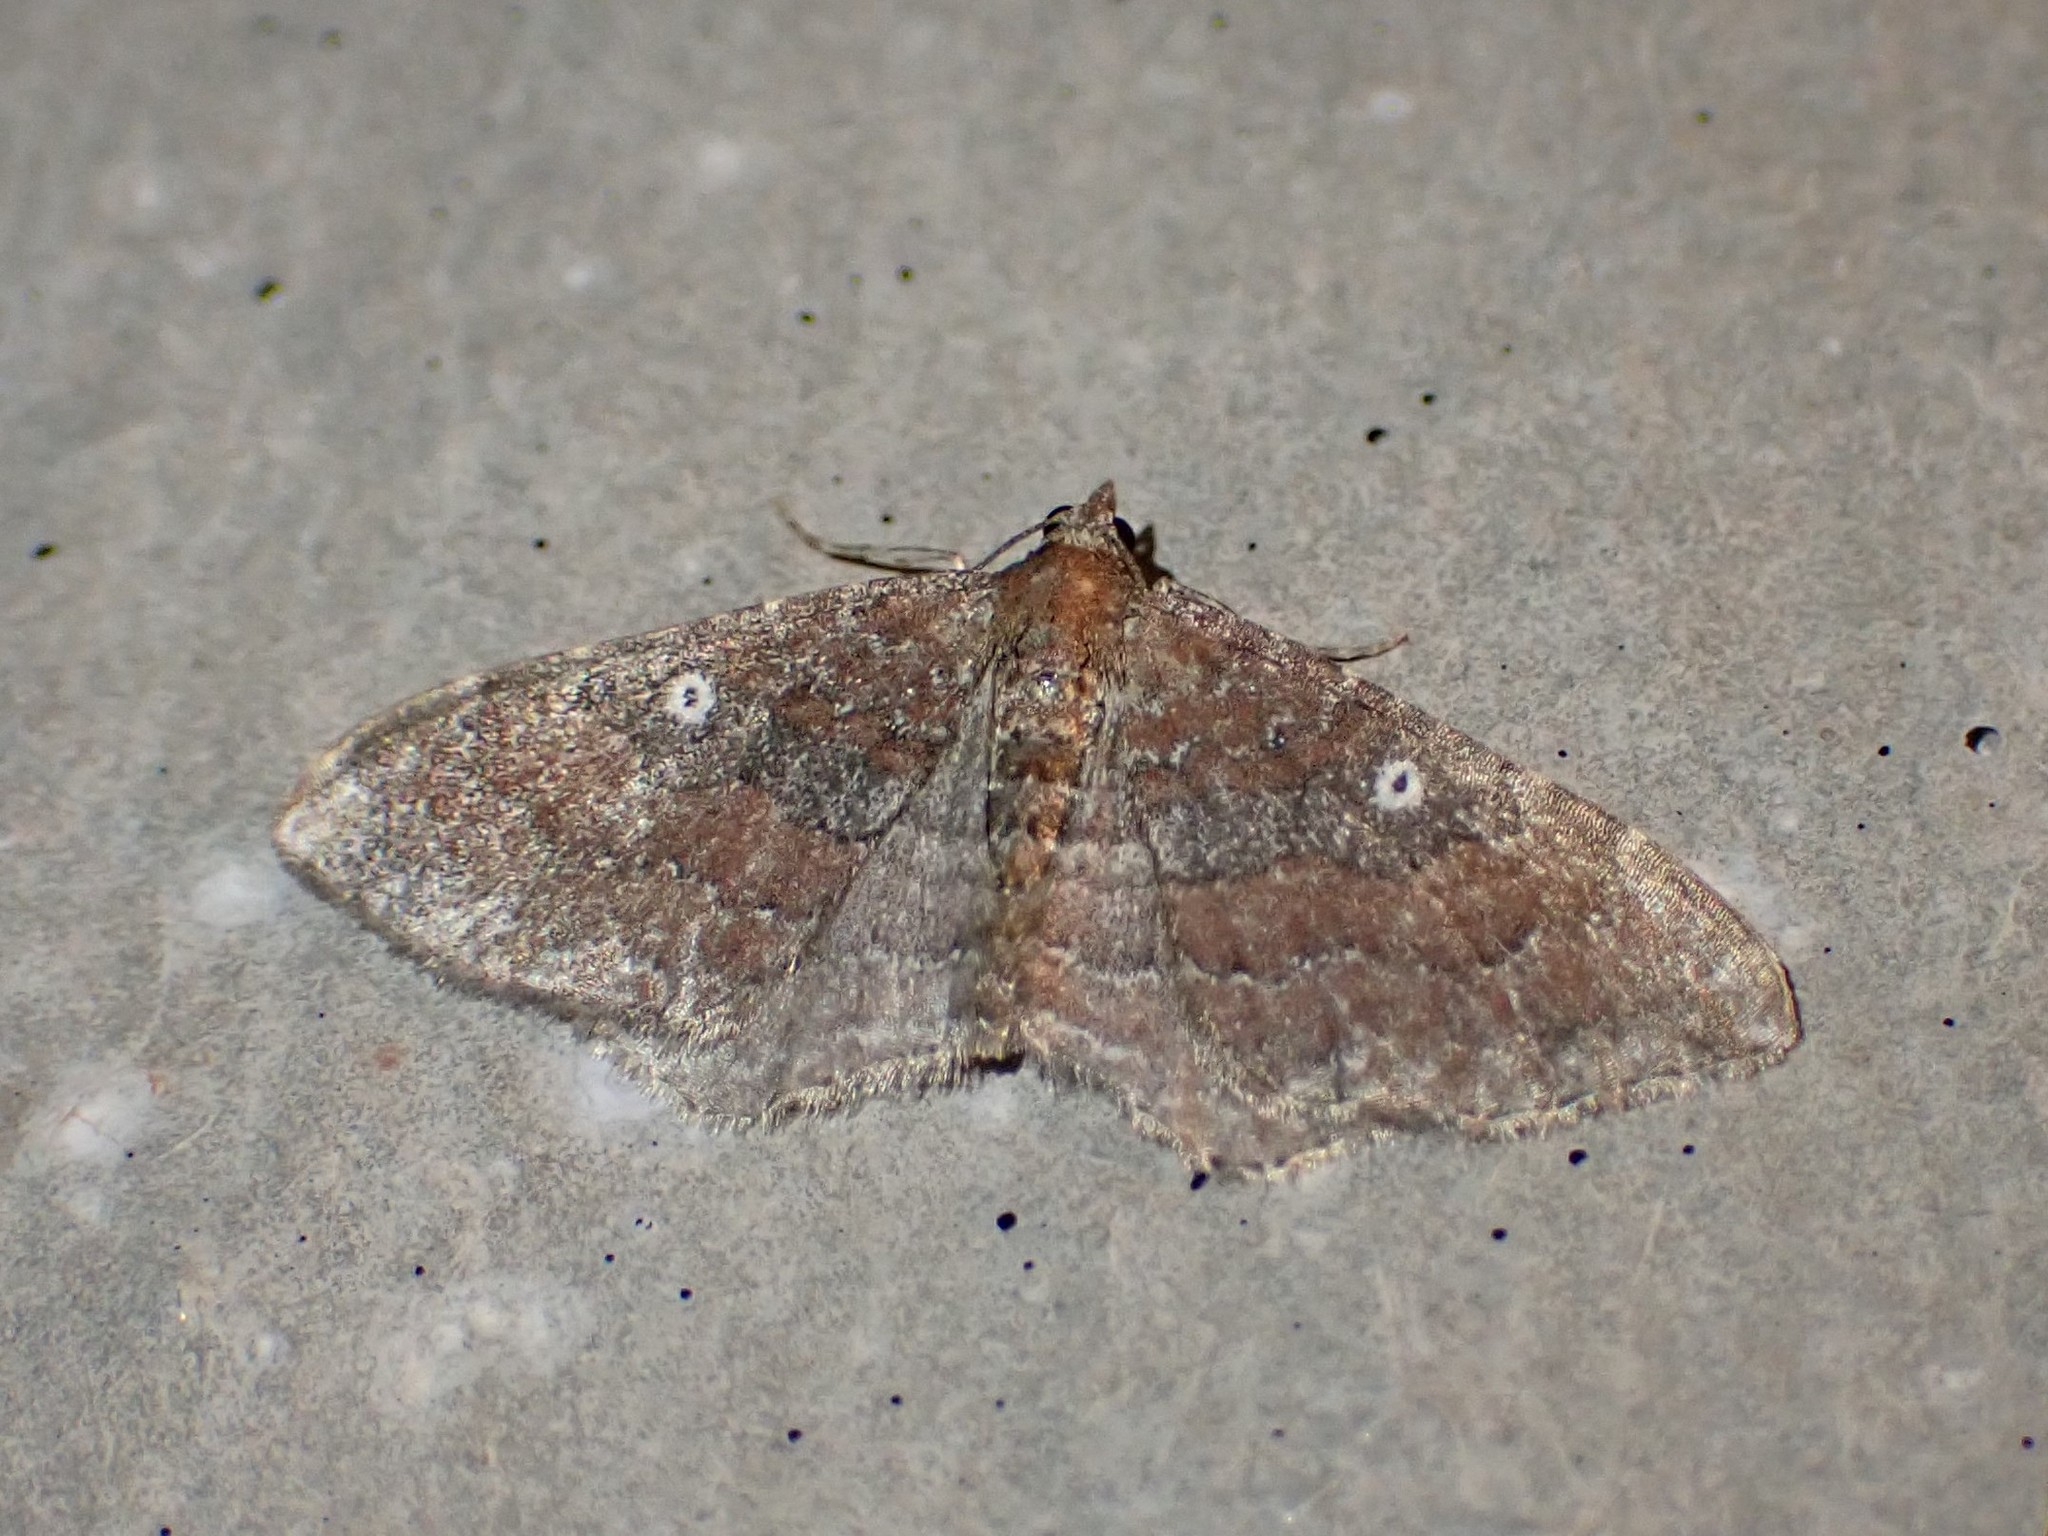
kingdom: Animalia
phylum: Arthropoda
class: Insecta
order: Lepidoptera
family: Geometridae
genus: Orthonama
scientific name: Orthonama obstipata
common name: The gem
